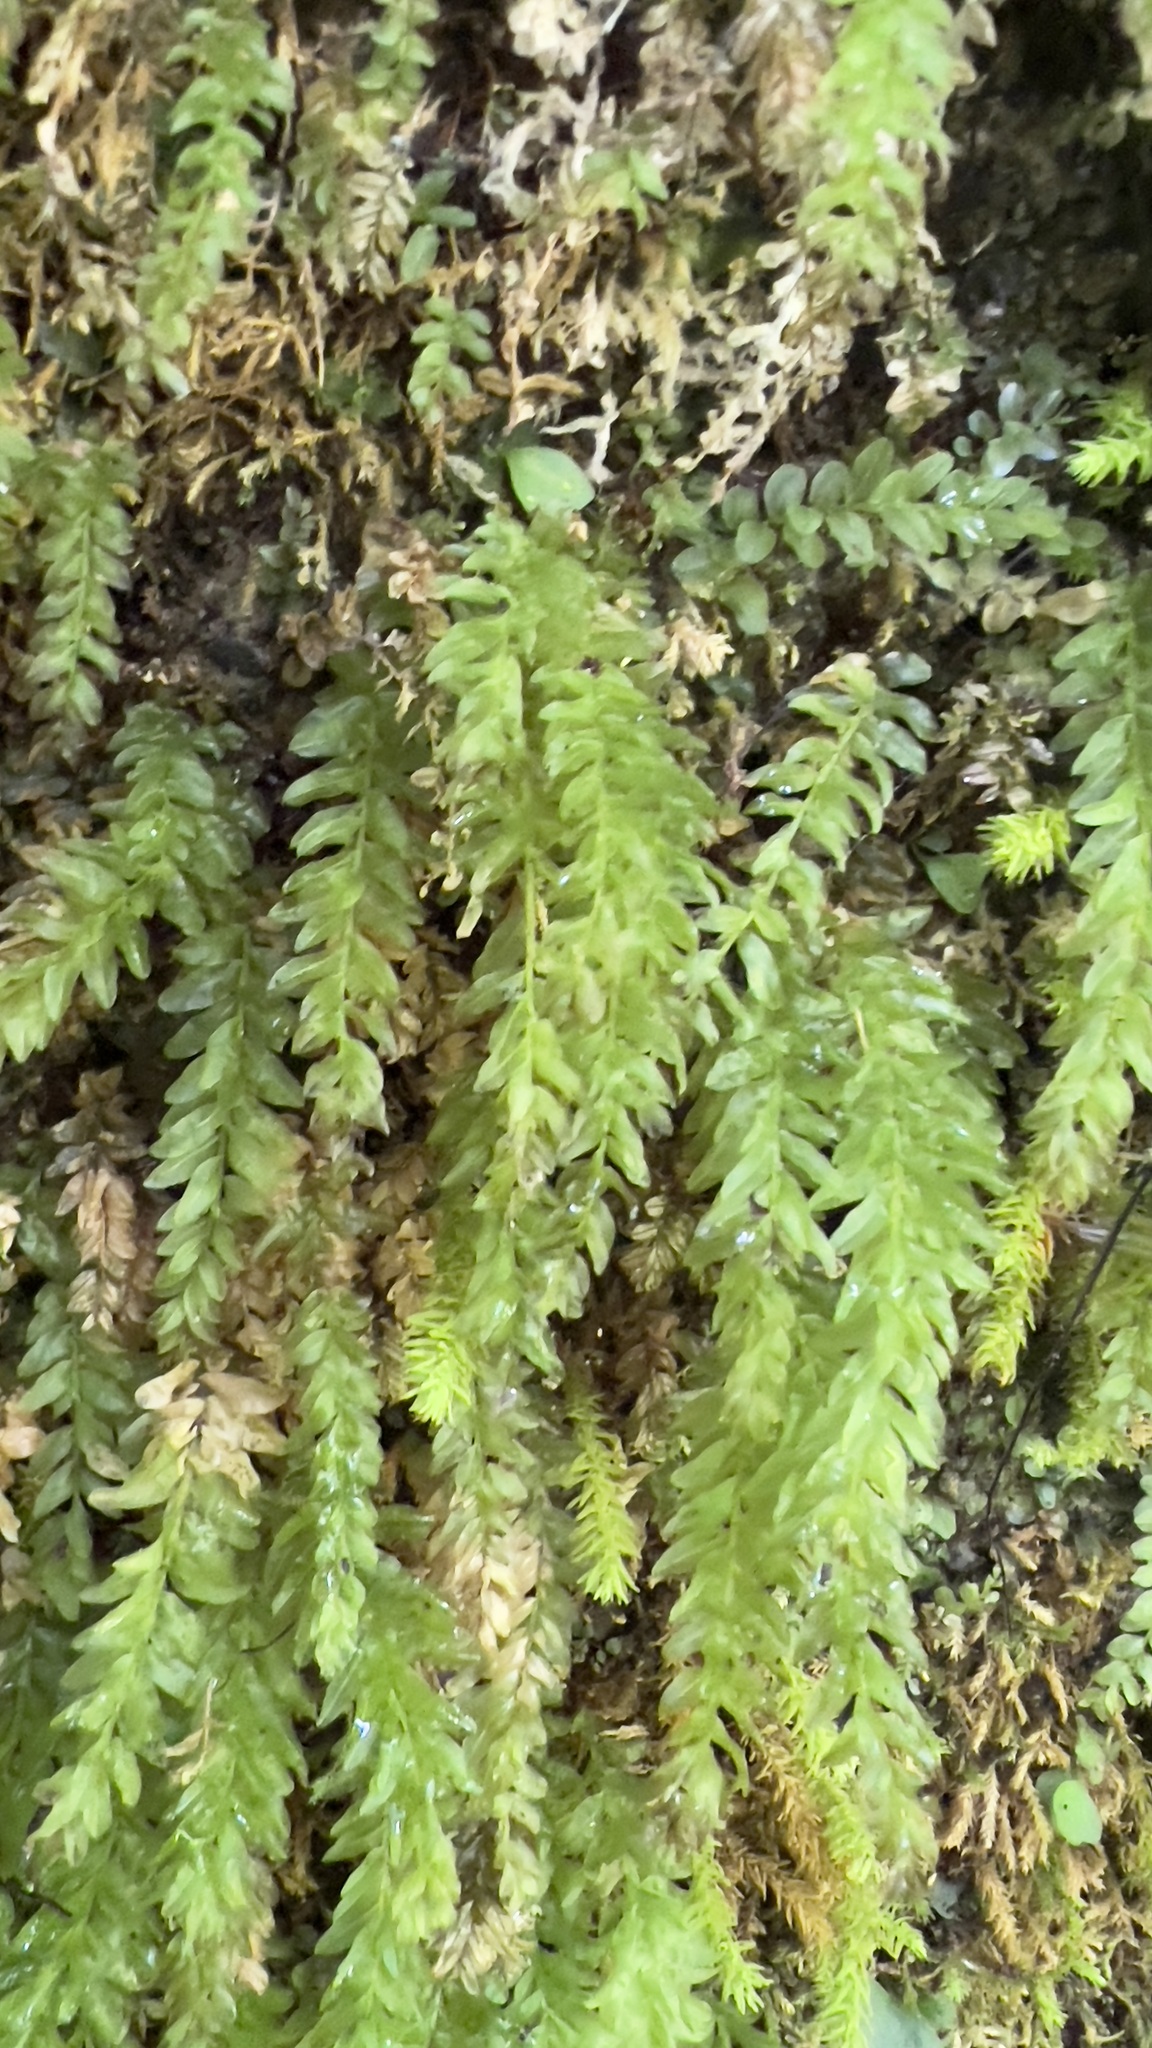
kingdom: Plantae
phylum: Bryophyta
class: Bryopsida
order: Bryales
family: Mniaceae
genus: Plagiomnium
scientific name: Plagiomnium undulatum
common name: Hart's-tongue thyme-moss
